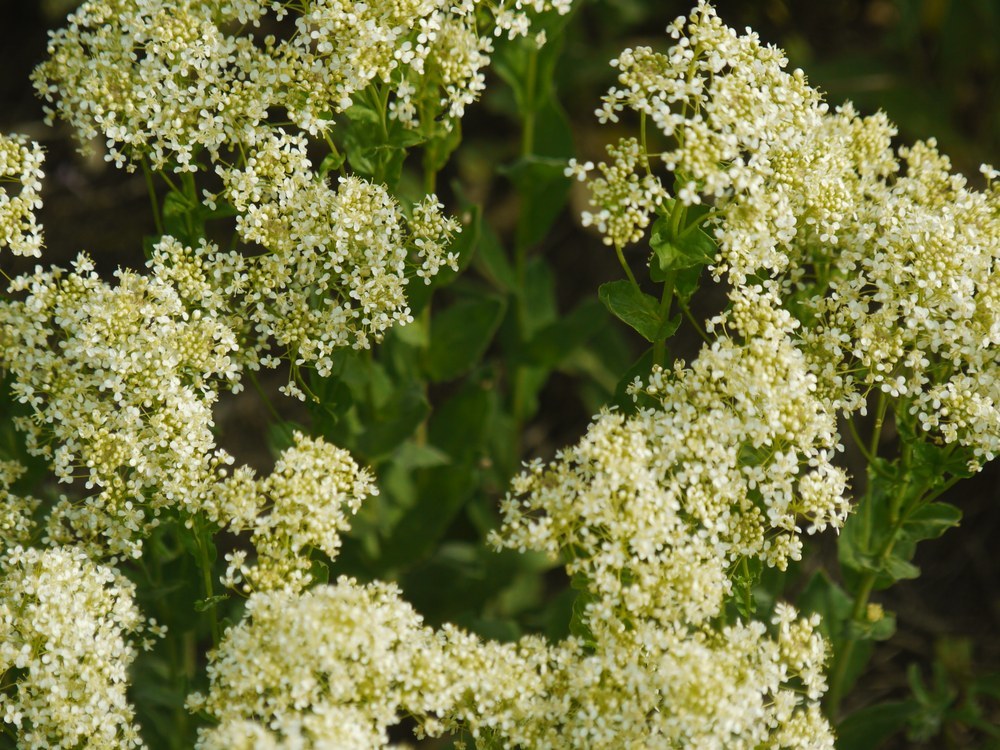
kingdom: Plantae
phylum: Tracheophyta
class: Magnoliopsida
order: Brassicales
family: Brassicaceae
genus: Lepidium
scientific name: Lepidium draba
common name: Hoary cress
